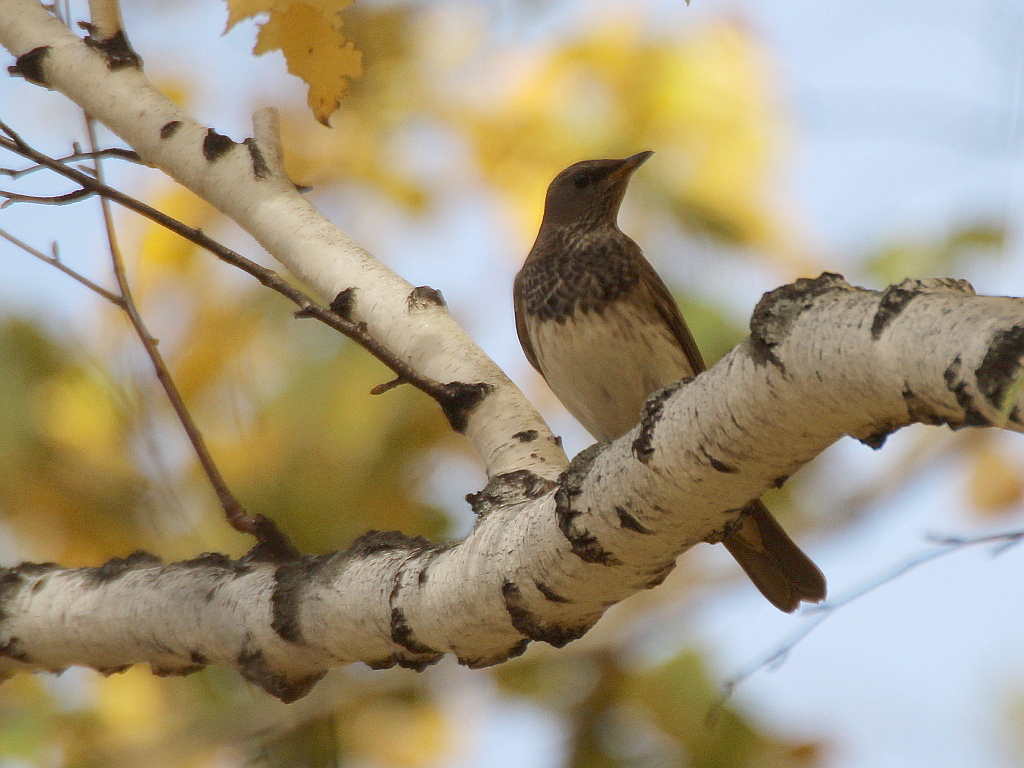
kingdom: Animalia
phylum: Chordata
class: Aves
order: Passeriformes
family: Turdidae
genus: Turdus
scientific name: Turdus atrogularis
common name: Black-throated thrush
